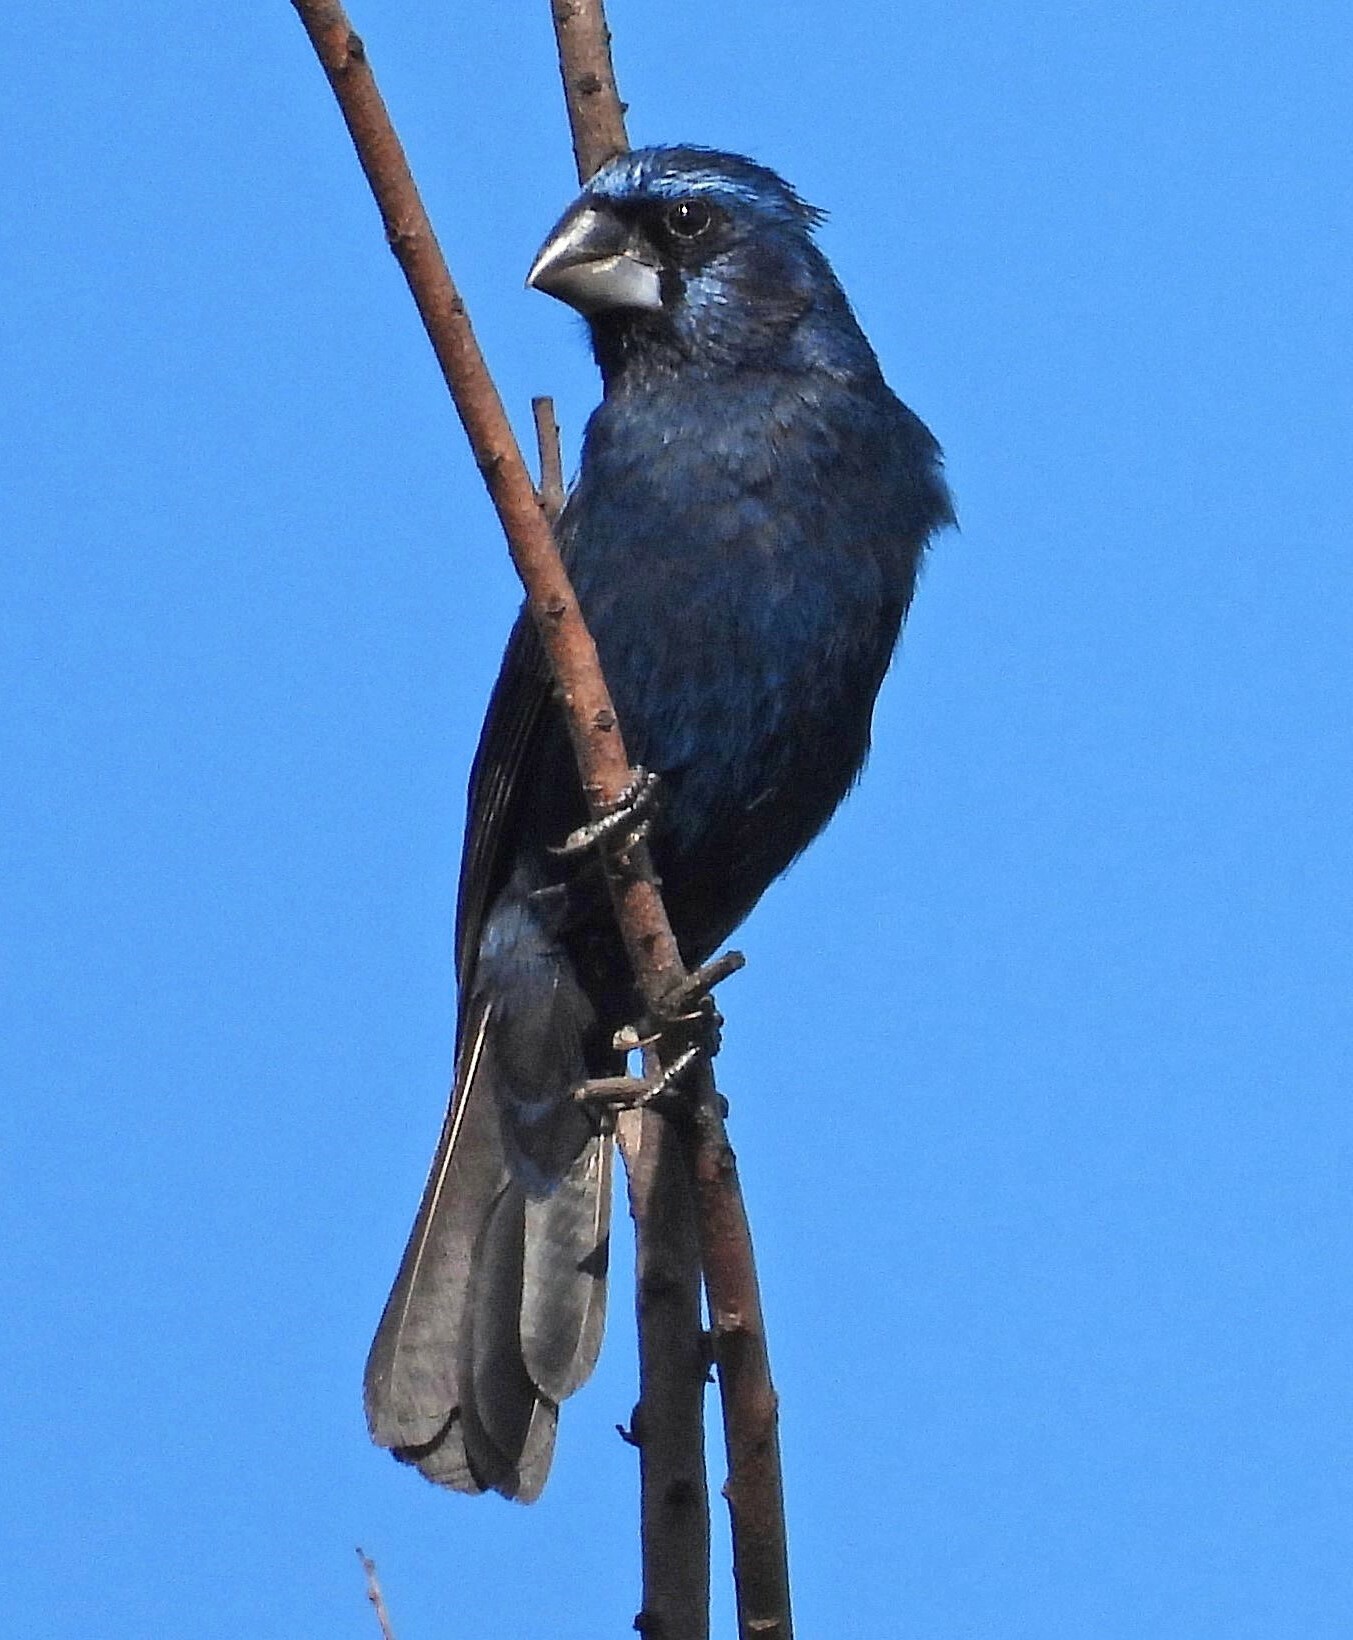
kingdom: Animalia
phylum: Chordata
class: Aves
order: Passeriformes
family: Cardinalidae
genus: Cyanoloxia
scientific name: Cyanoloxia brissonii
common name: Ultramarine grosbeak
